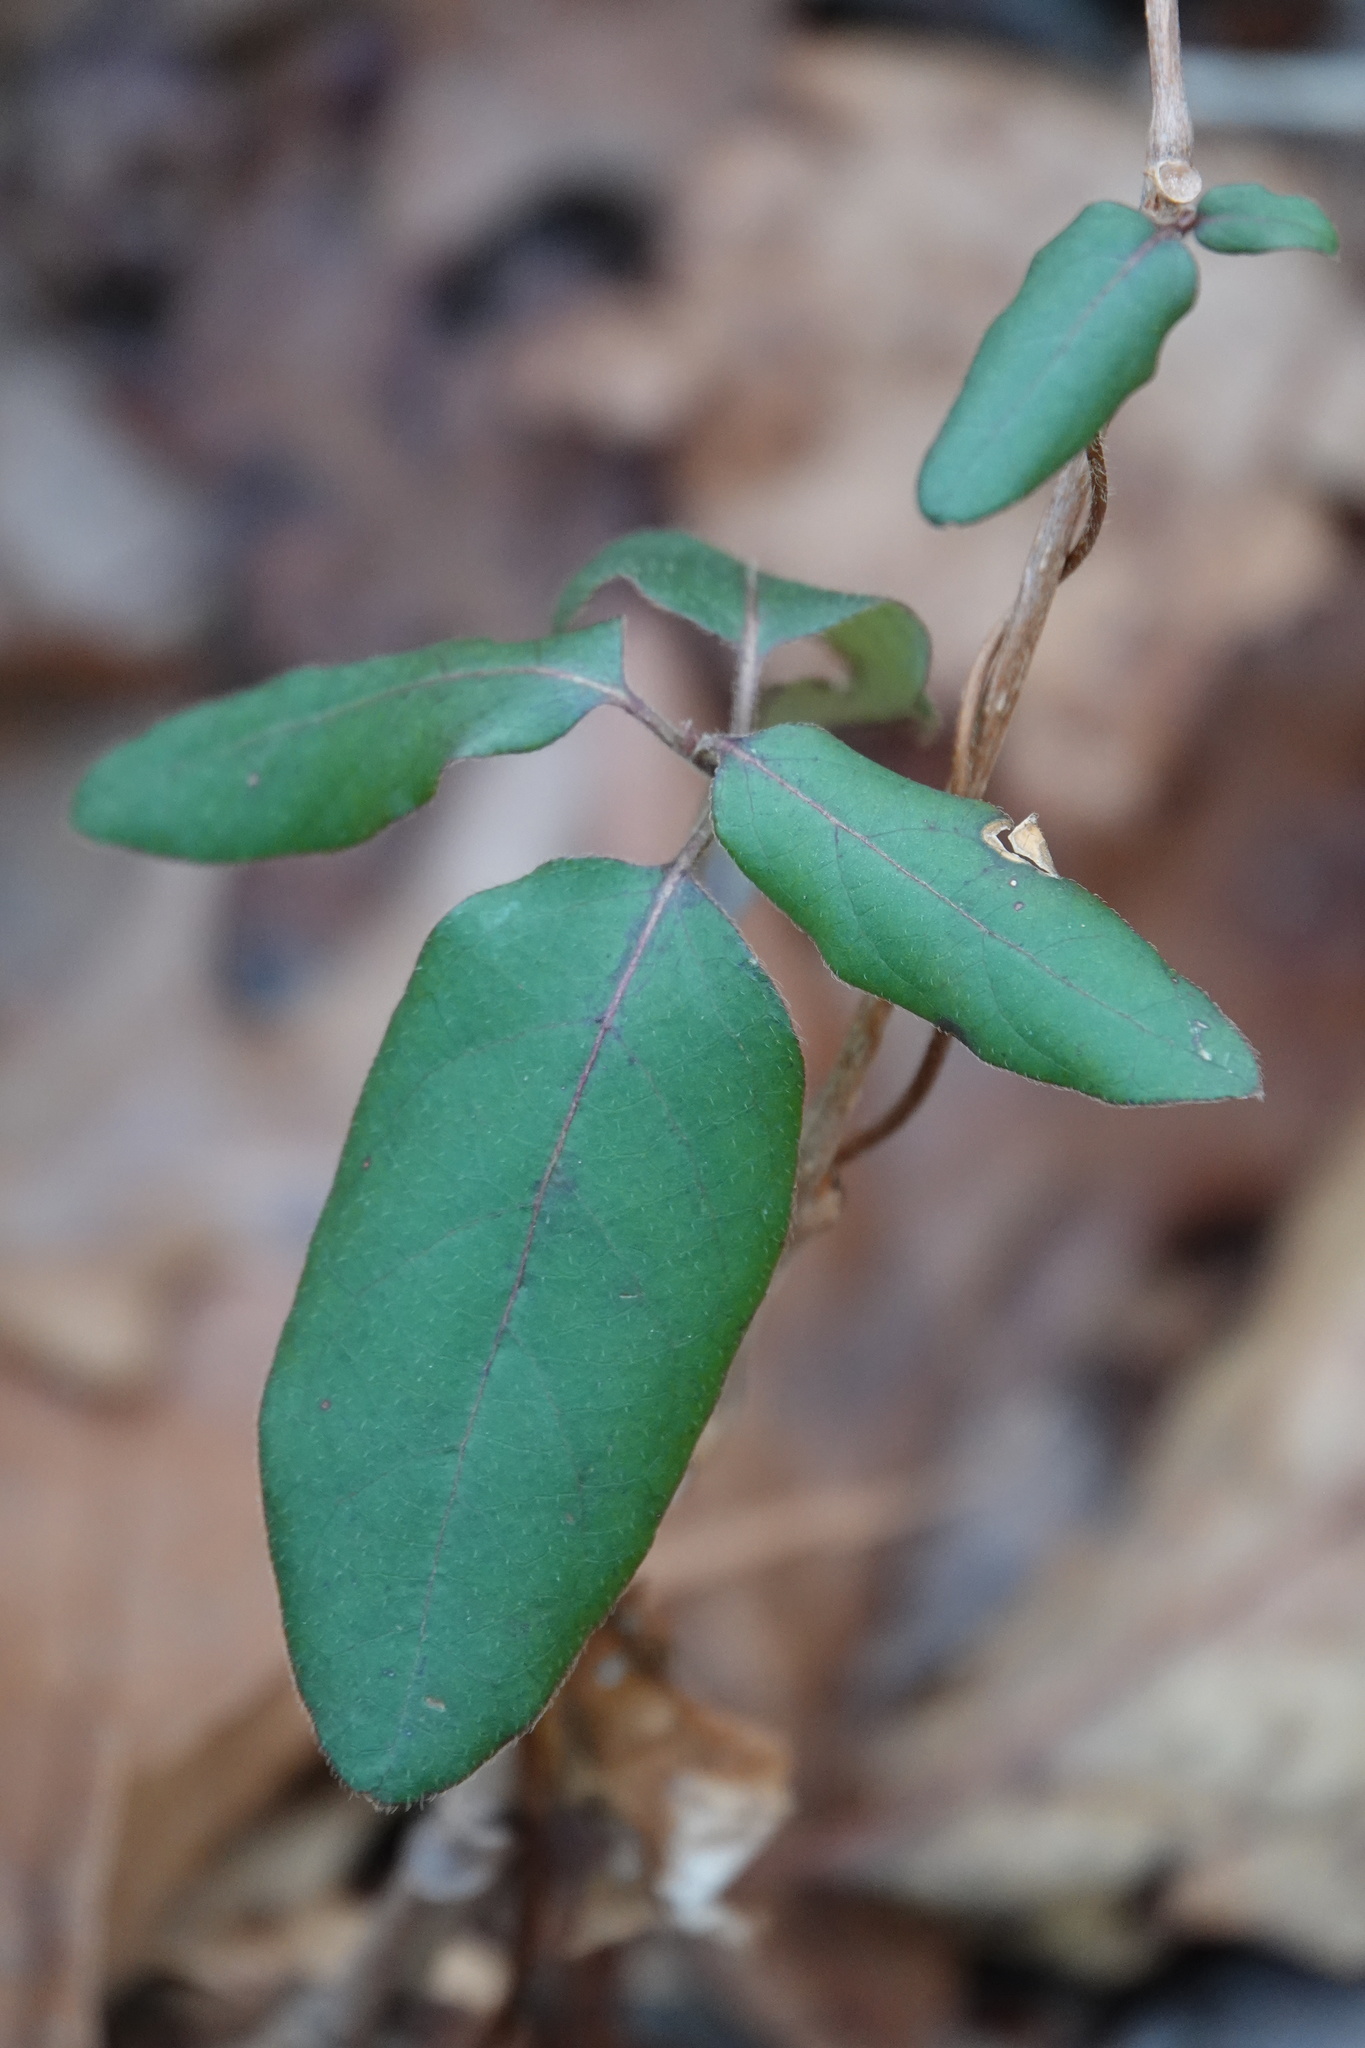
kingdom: Plantae
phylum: Tracheophyta
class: Magnoliopsida
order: Dipsacales
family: Caprifoliaceae
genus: Lonicera
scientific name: Lonicera japonica
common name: Japanese honeysuckle
